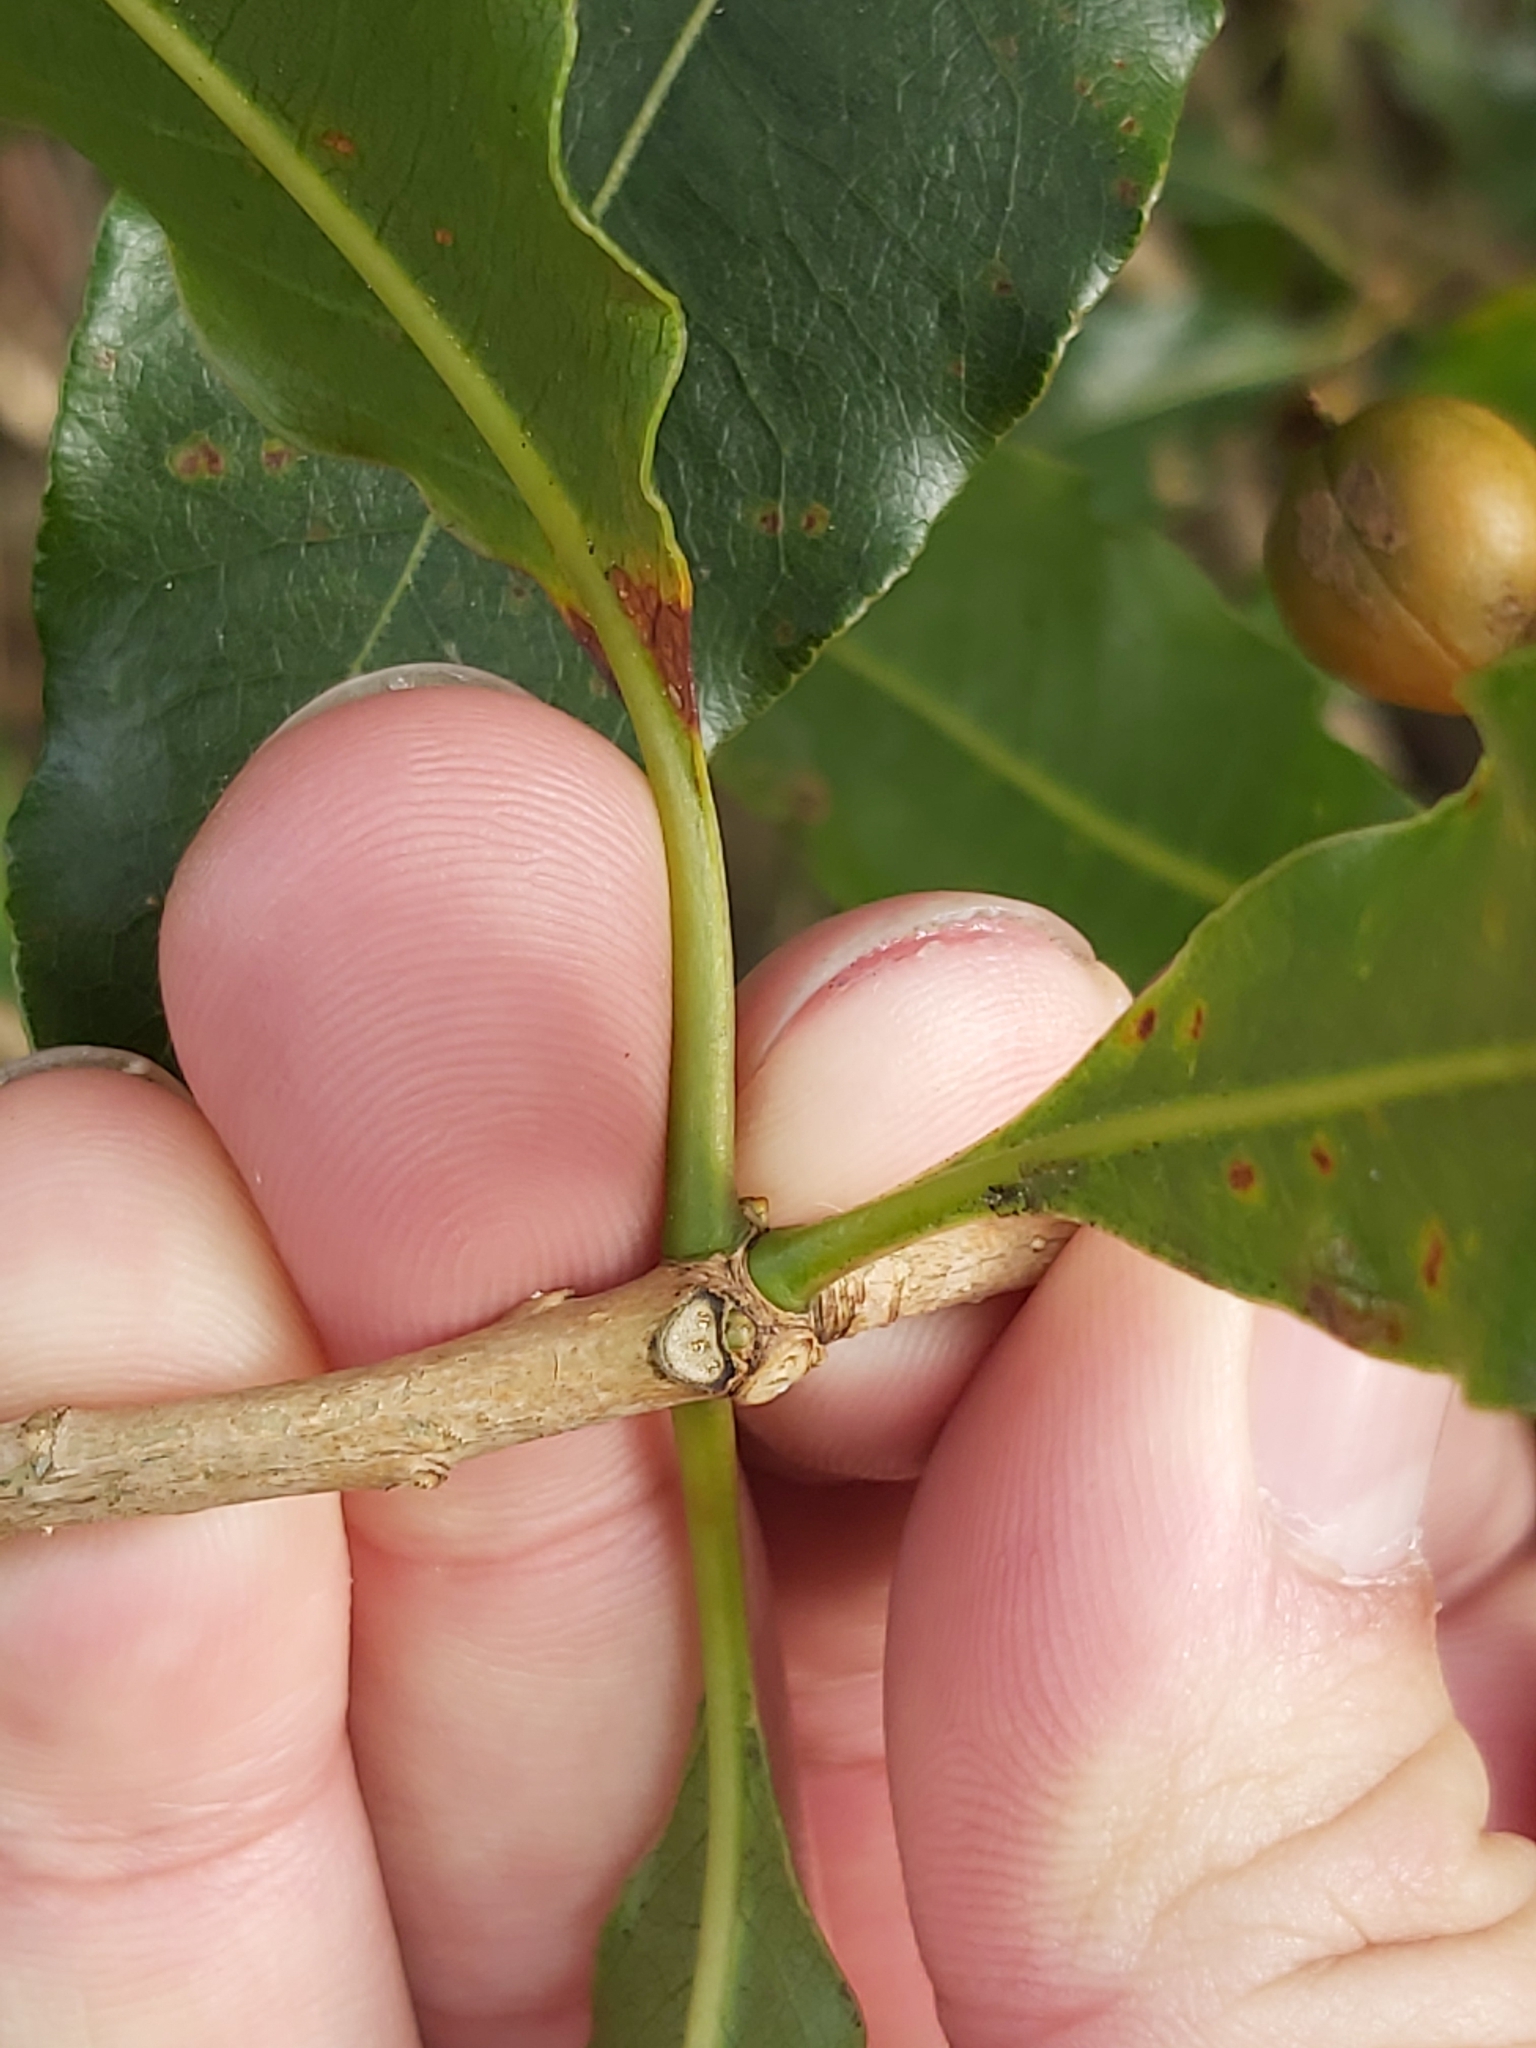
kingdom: Plantae
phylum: Tracheophyta
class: Magnoliopsida
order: Apiales
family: Pittosporaceae
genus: Pittosporum
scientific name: Pittosporum undulatum
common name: Australian cheesewood
